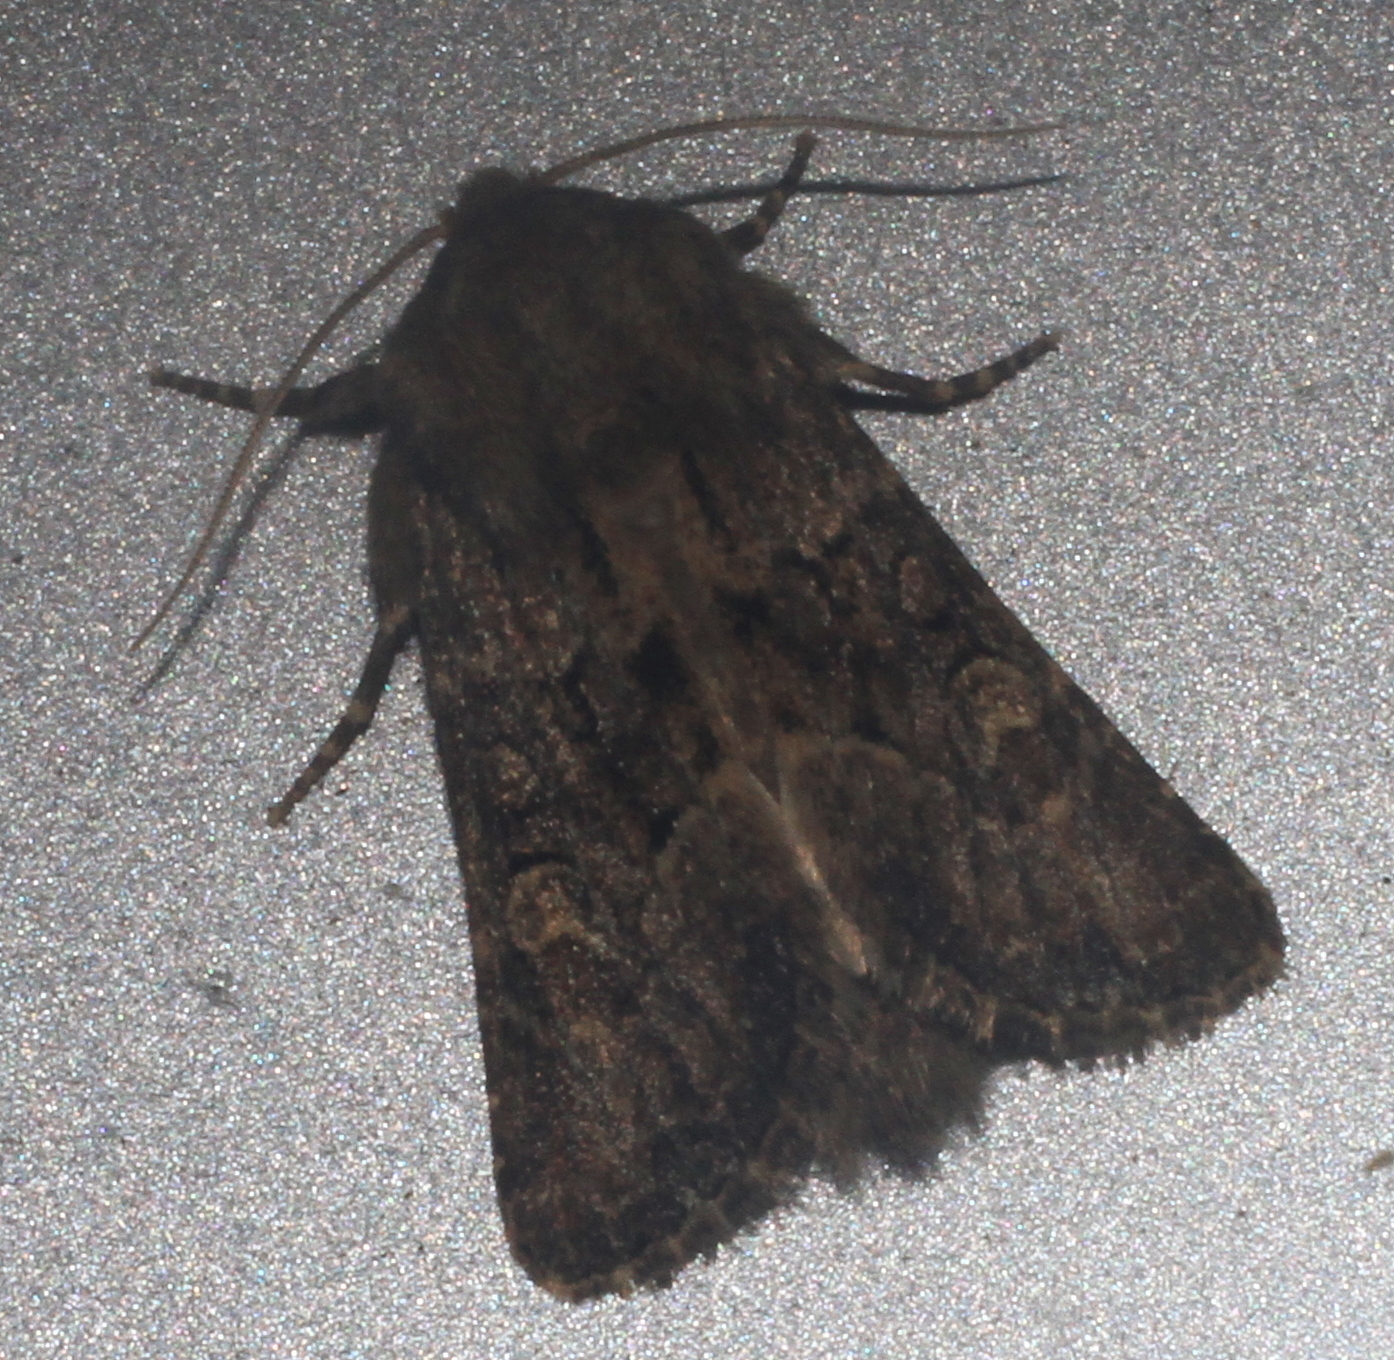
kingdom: Animalia
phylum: Arthropoda
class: Insecta
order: Lepidoptera
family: Noctuidae
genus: Luperina
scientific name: Luperina testacea
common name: Flounced rustic
